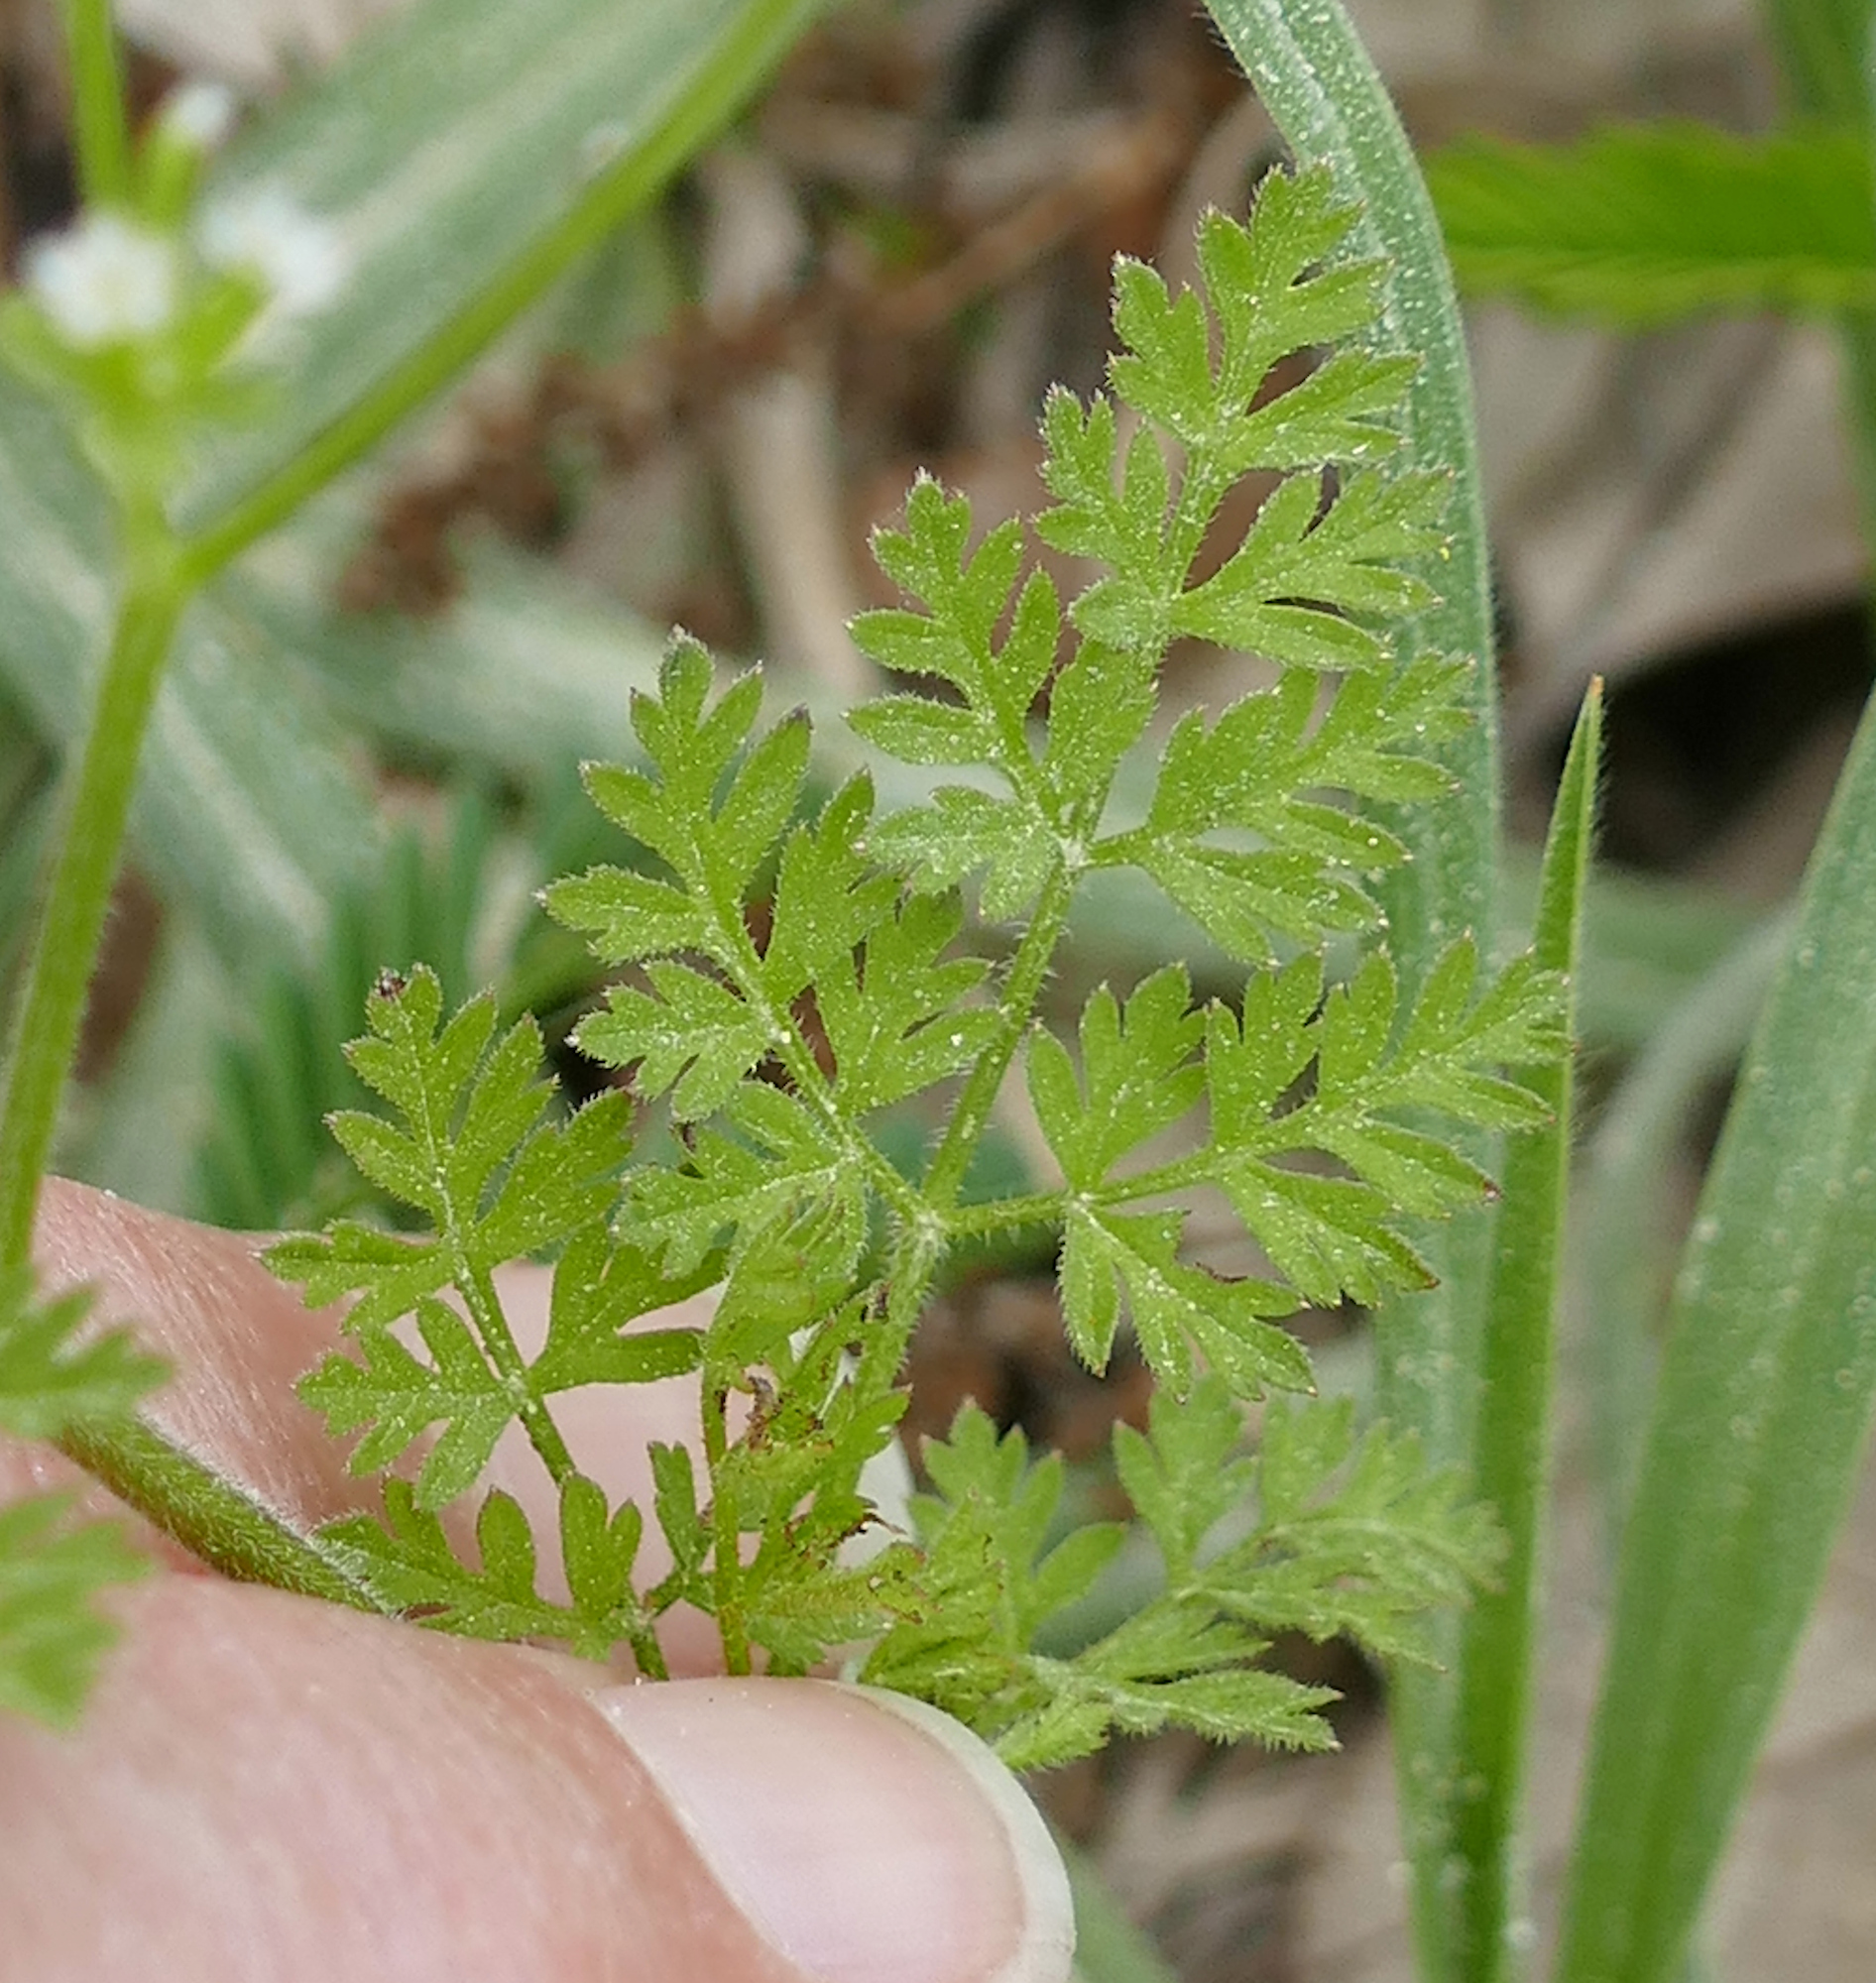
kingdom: Plantae
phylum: Tracheophyta
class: Magnoliopsida
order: Apiales
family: Apiaceae
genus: Chaerophyllum
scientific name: Chaerophyllum tainturieri
